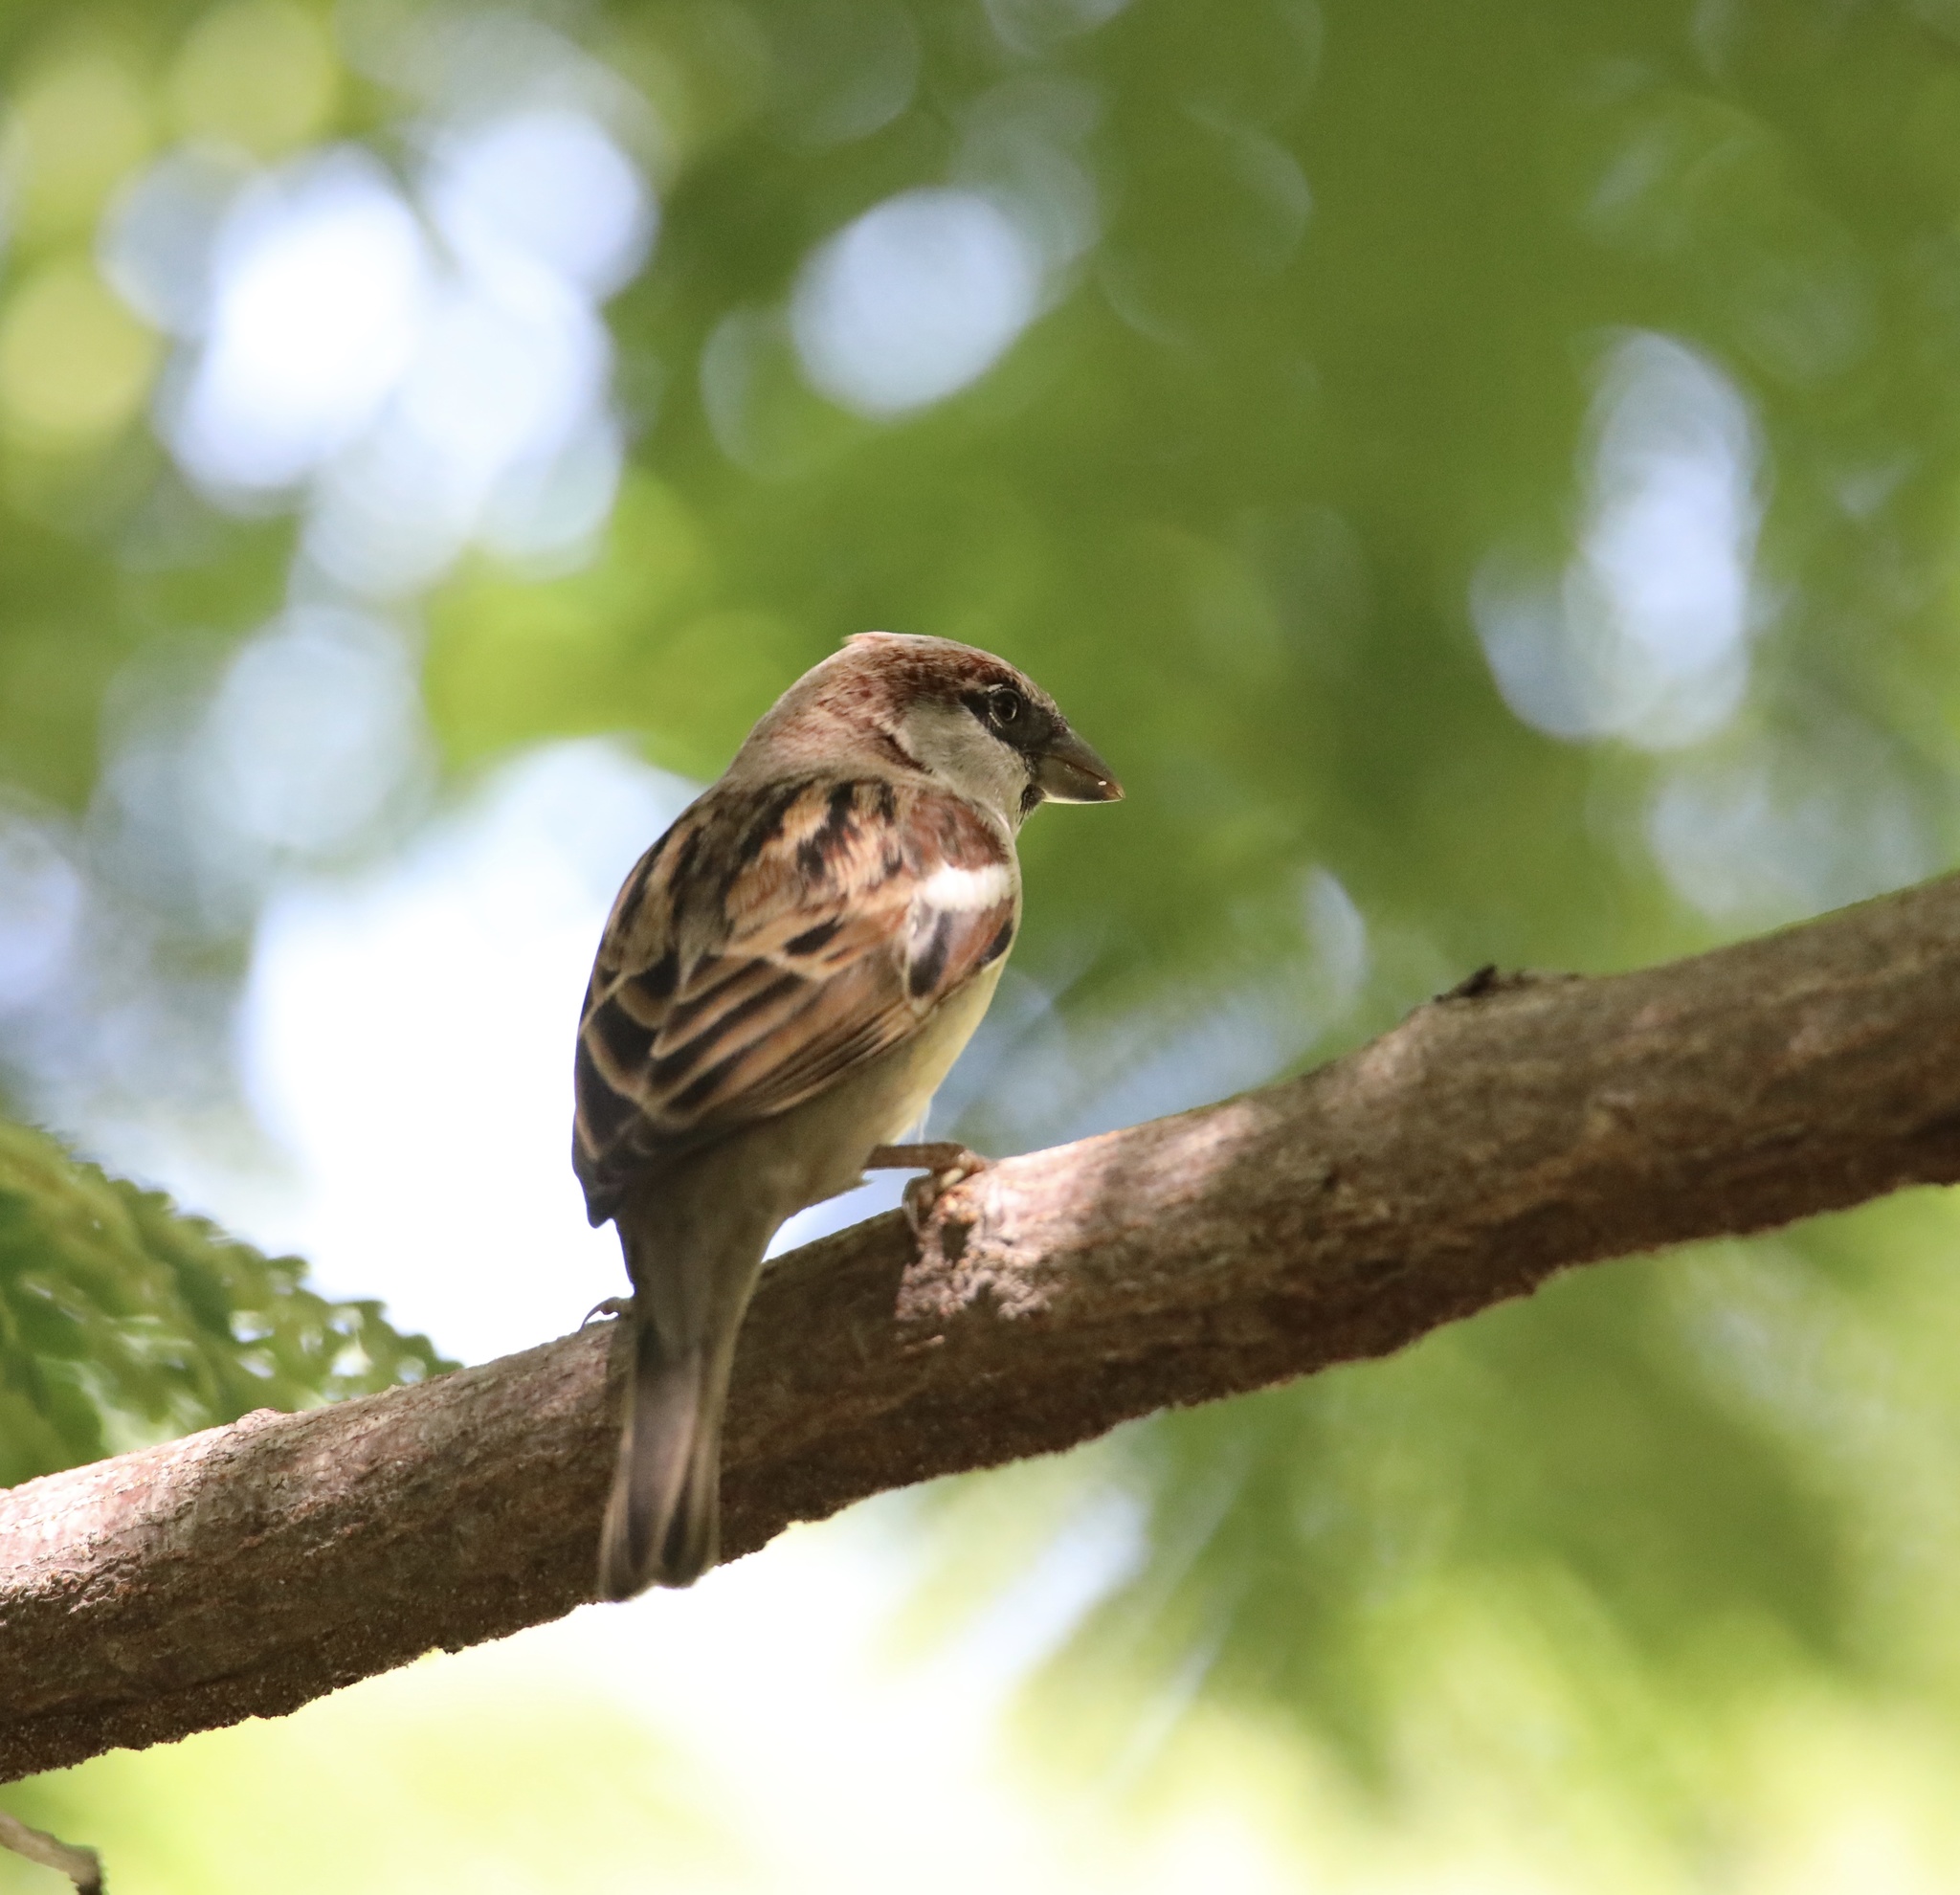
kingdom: Animalia
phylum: Chordata
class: Aves
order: Passeriformes
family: Passeridae
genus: Passer
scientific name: Passer domesticus
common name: House sparrow
